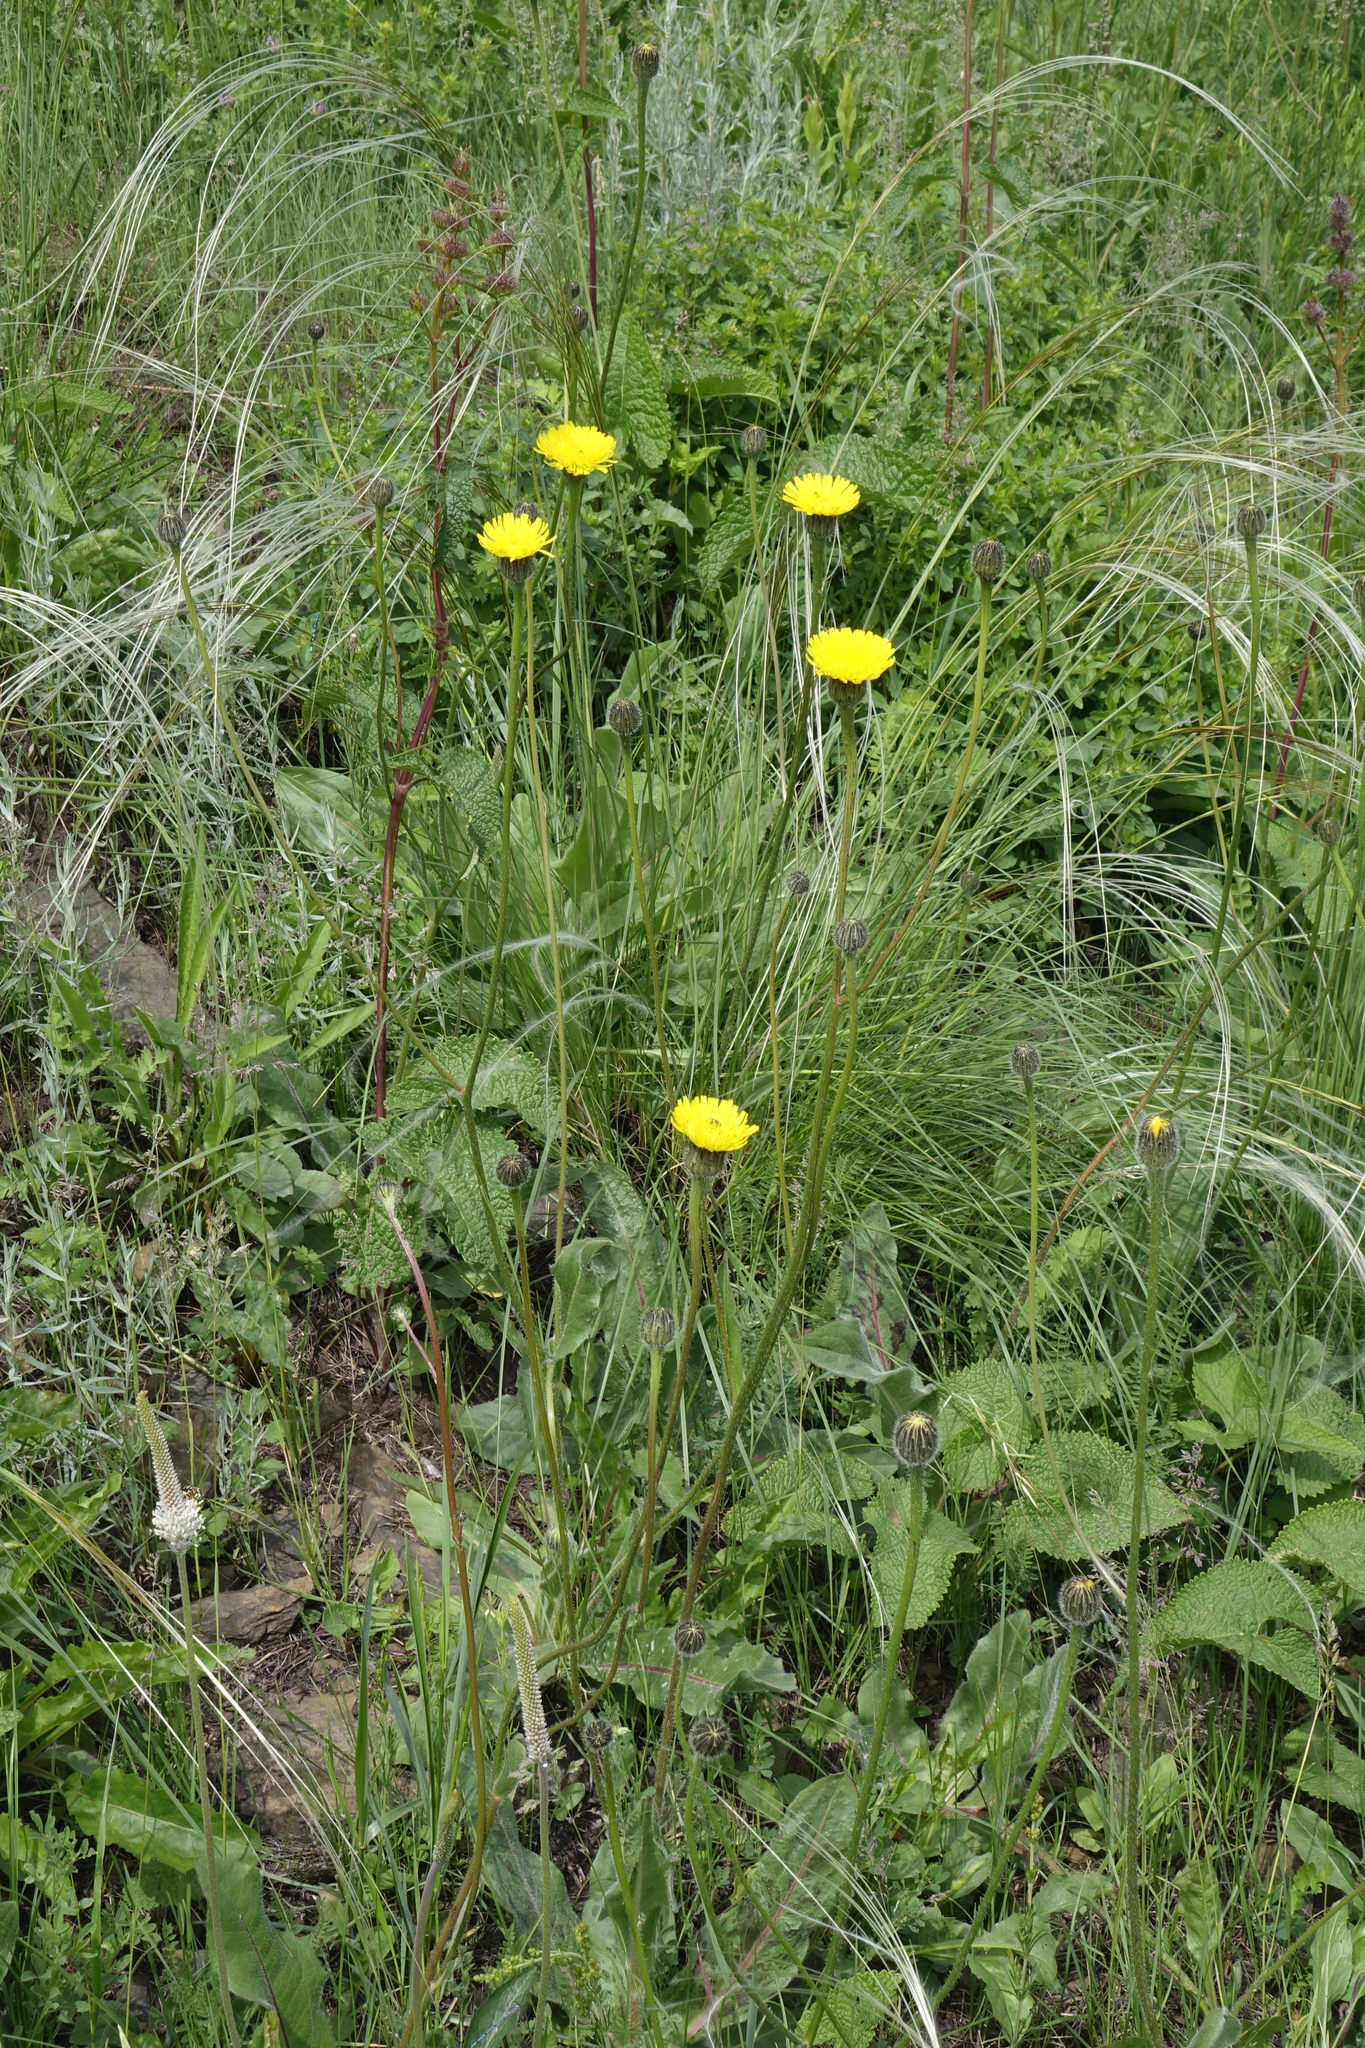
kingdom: Plantae
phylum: Tracheophyta
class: Magnoliopsida
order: Asterales
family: Asteraceae
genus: Trommsdorffia
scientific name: Trommsdorffia maculata
